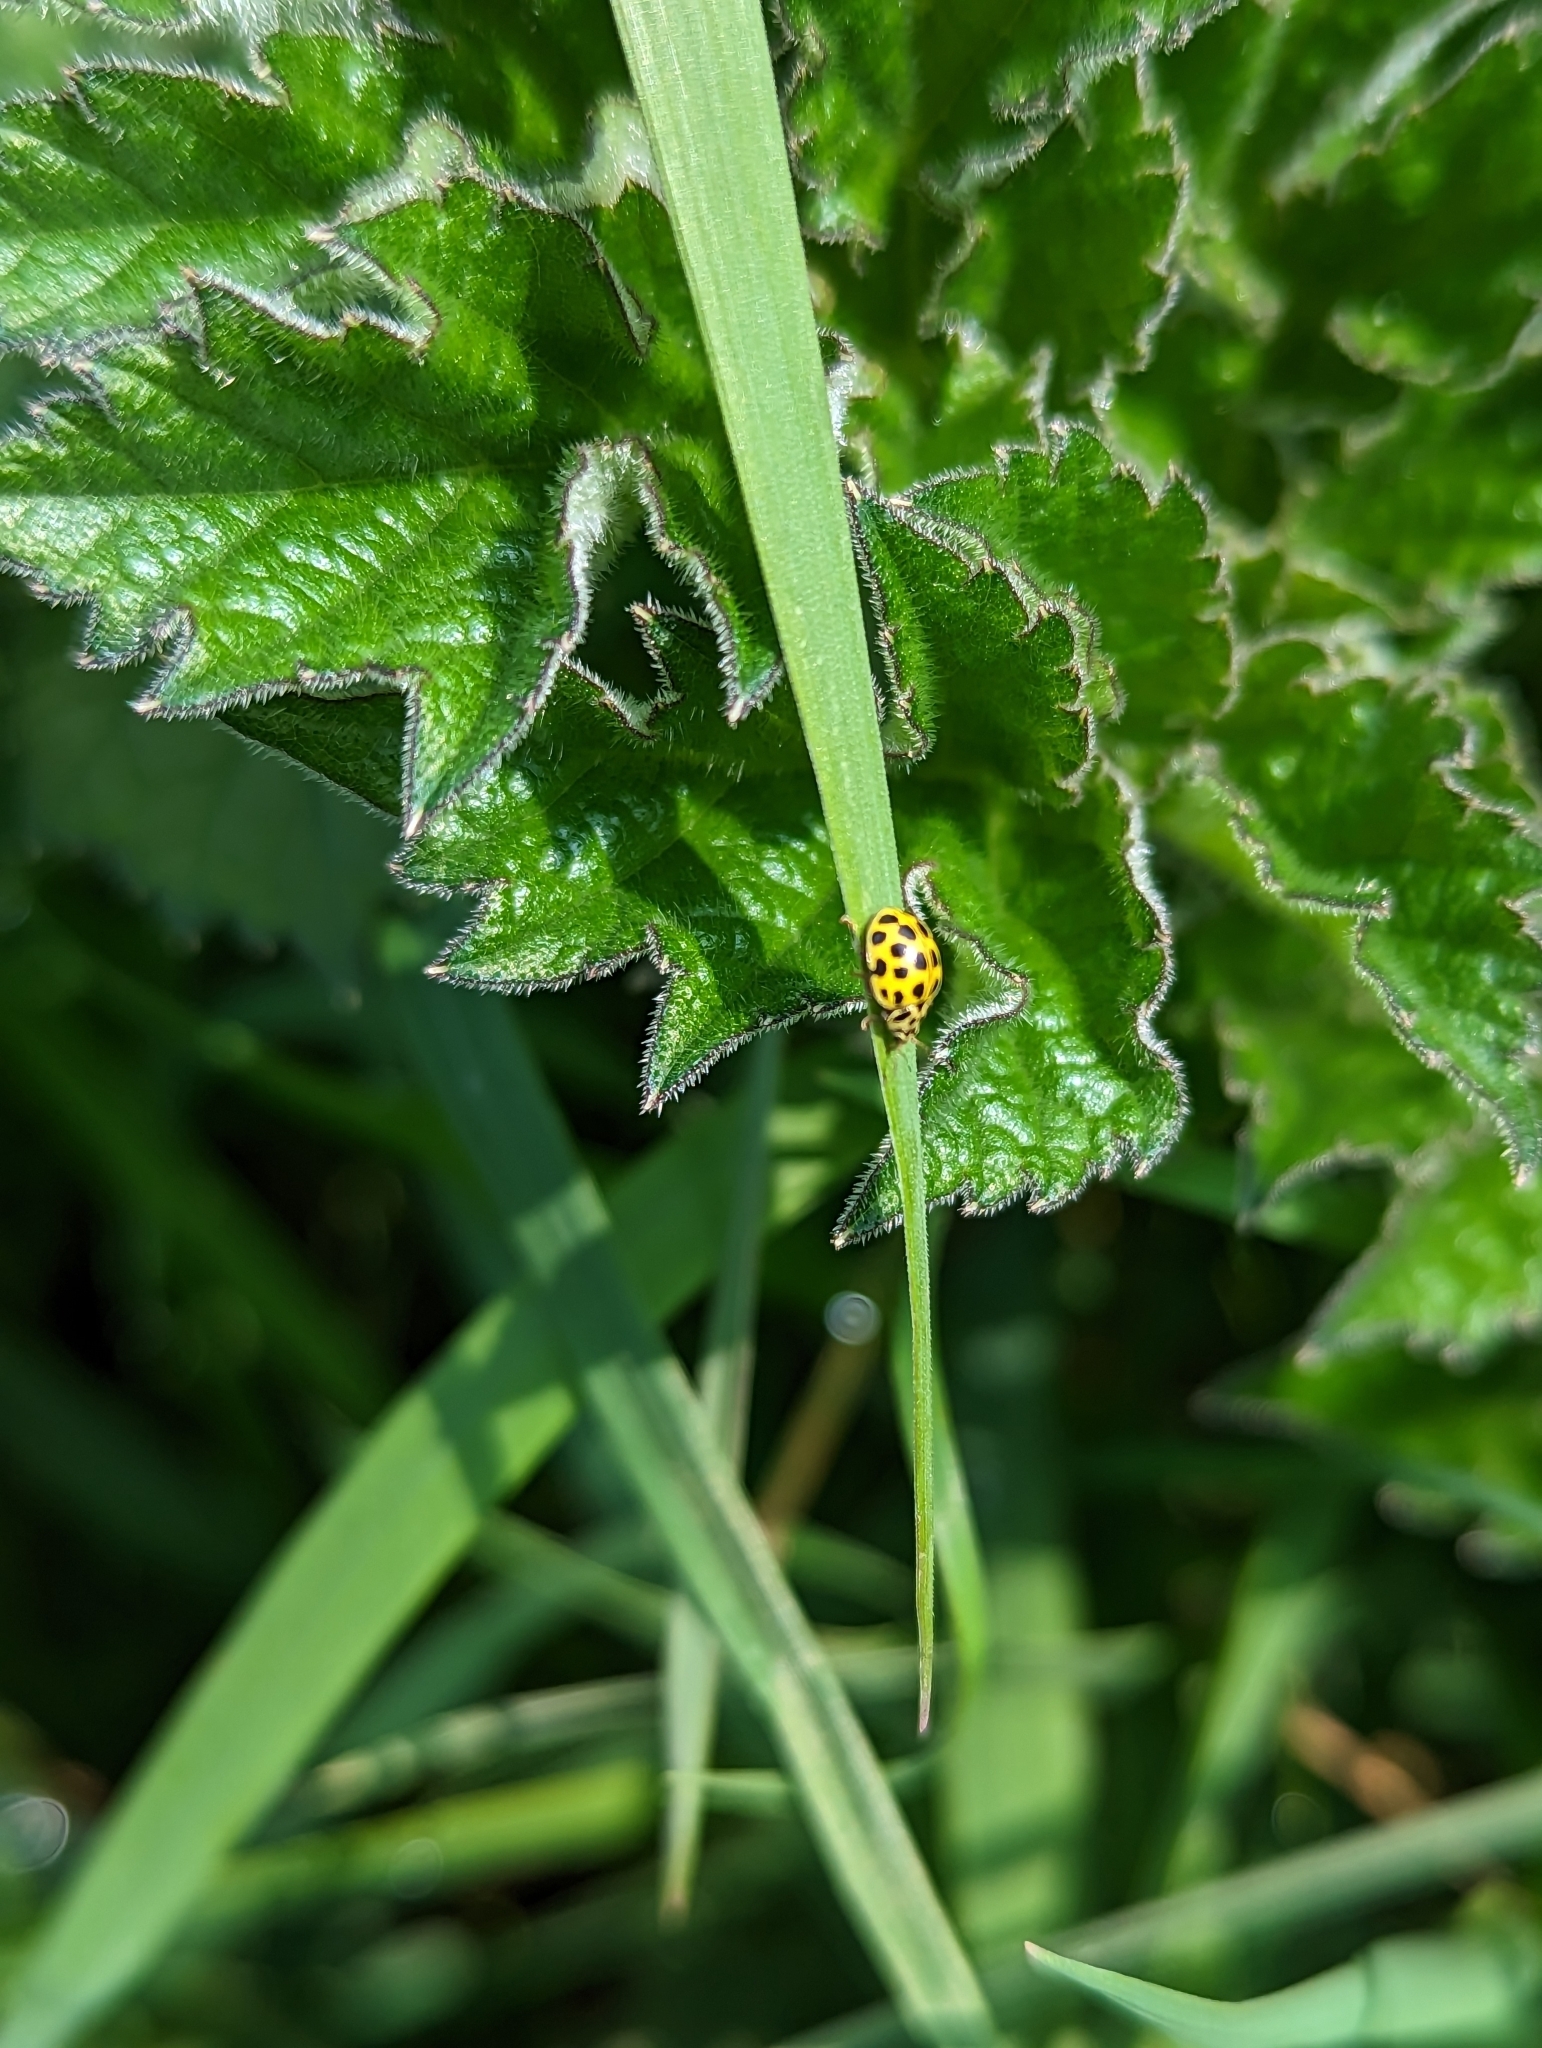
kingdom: Animalia
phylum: Arthropoda
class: Insecta
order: Coleoptera
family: Coccinellidae
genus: Psyllobora
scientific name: Psyllobora vigintiduopunctata
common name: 22-spot ladybird
